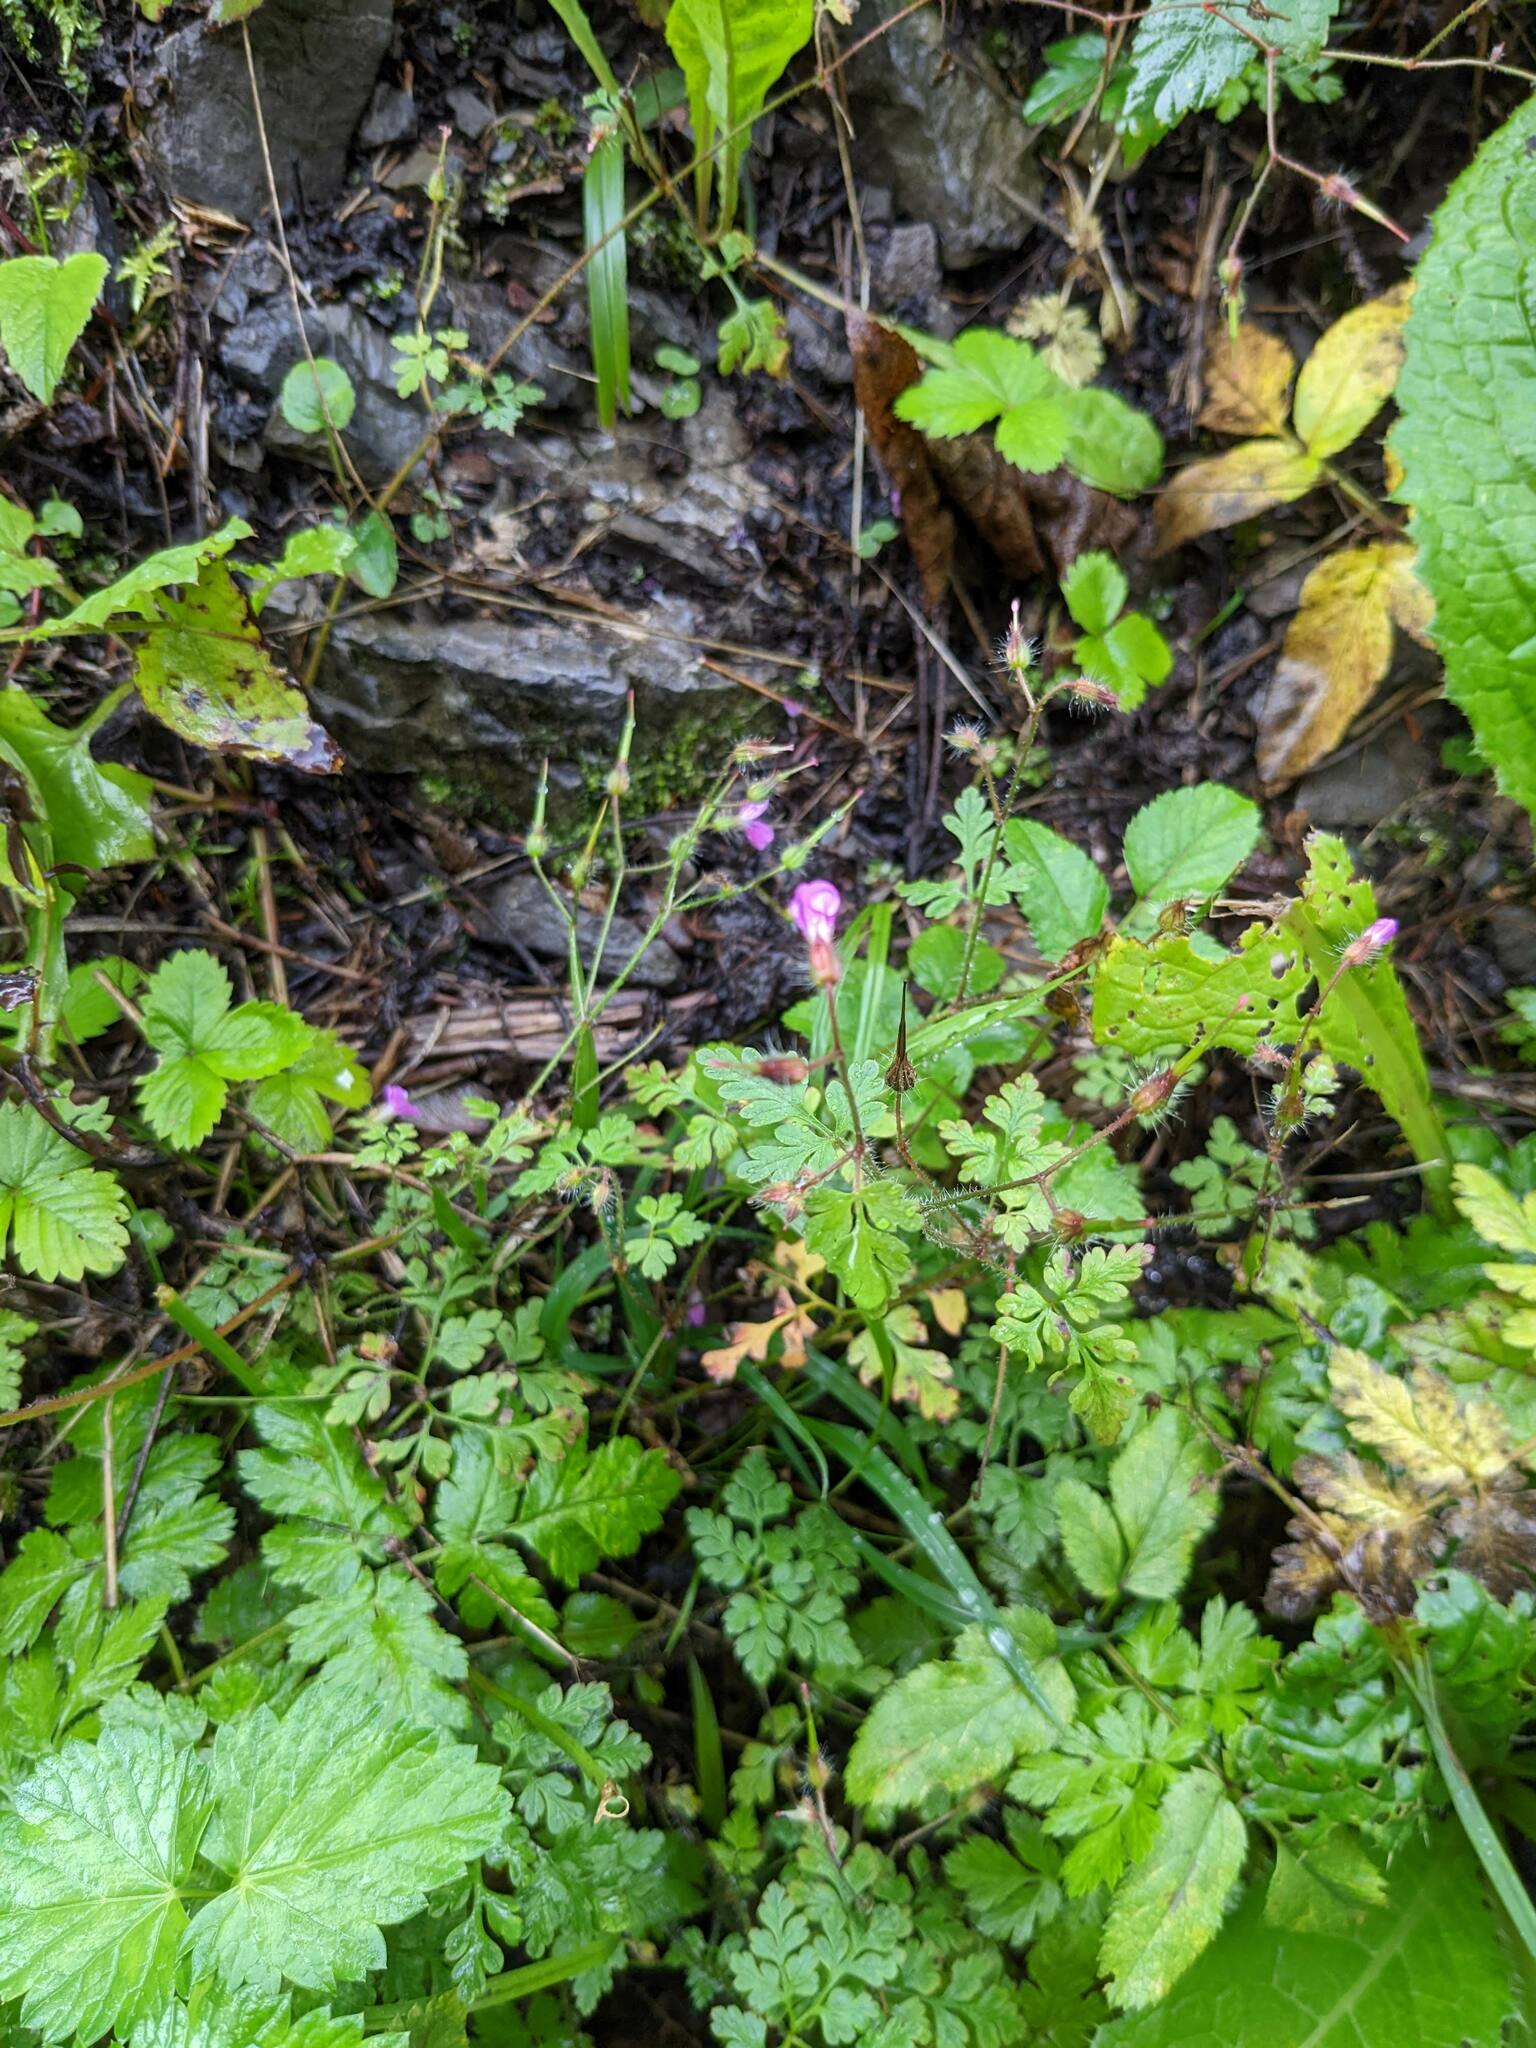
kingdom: Plantae
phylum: Tracheophyta
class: Magnoliopsida
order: Geraniales
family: Geraniaceae
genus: Geranium
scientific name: Geranium robertianum
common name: Herb-robert
